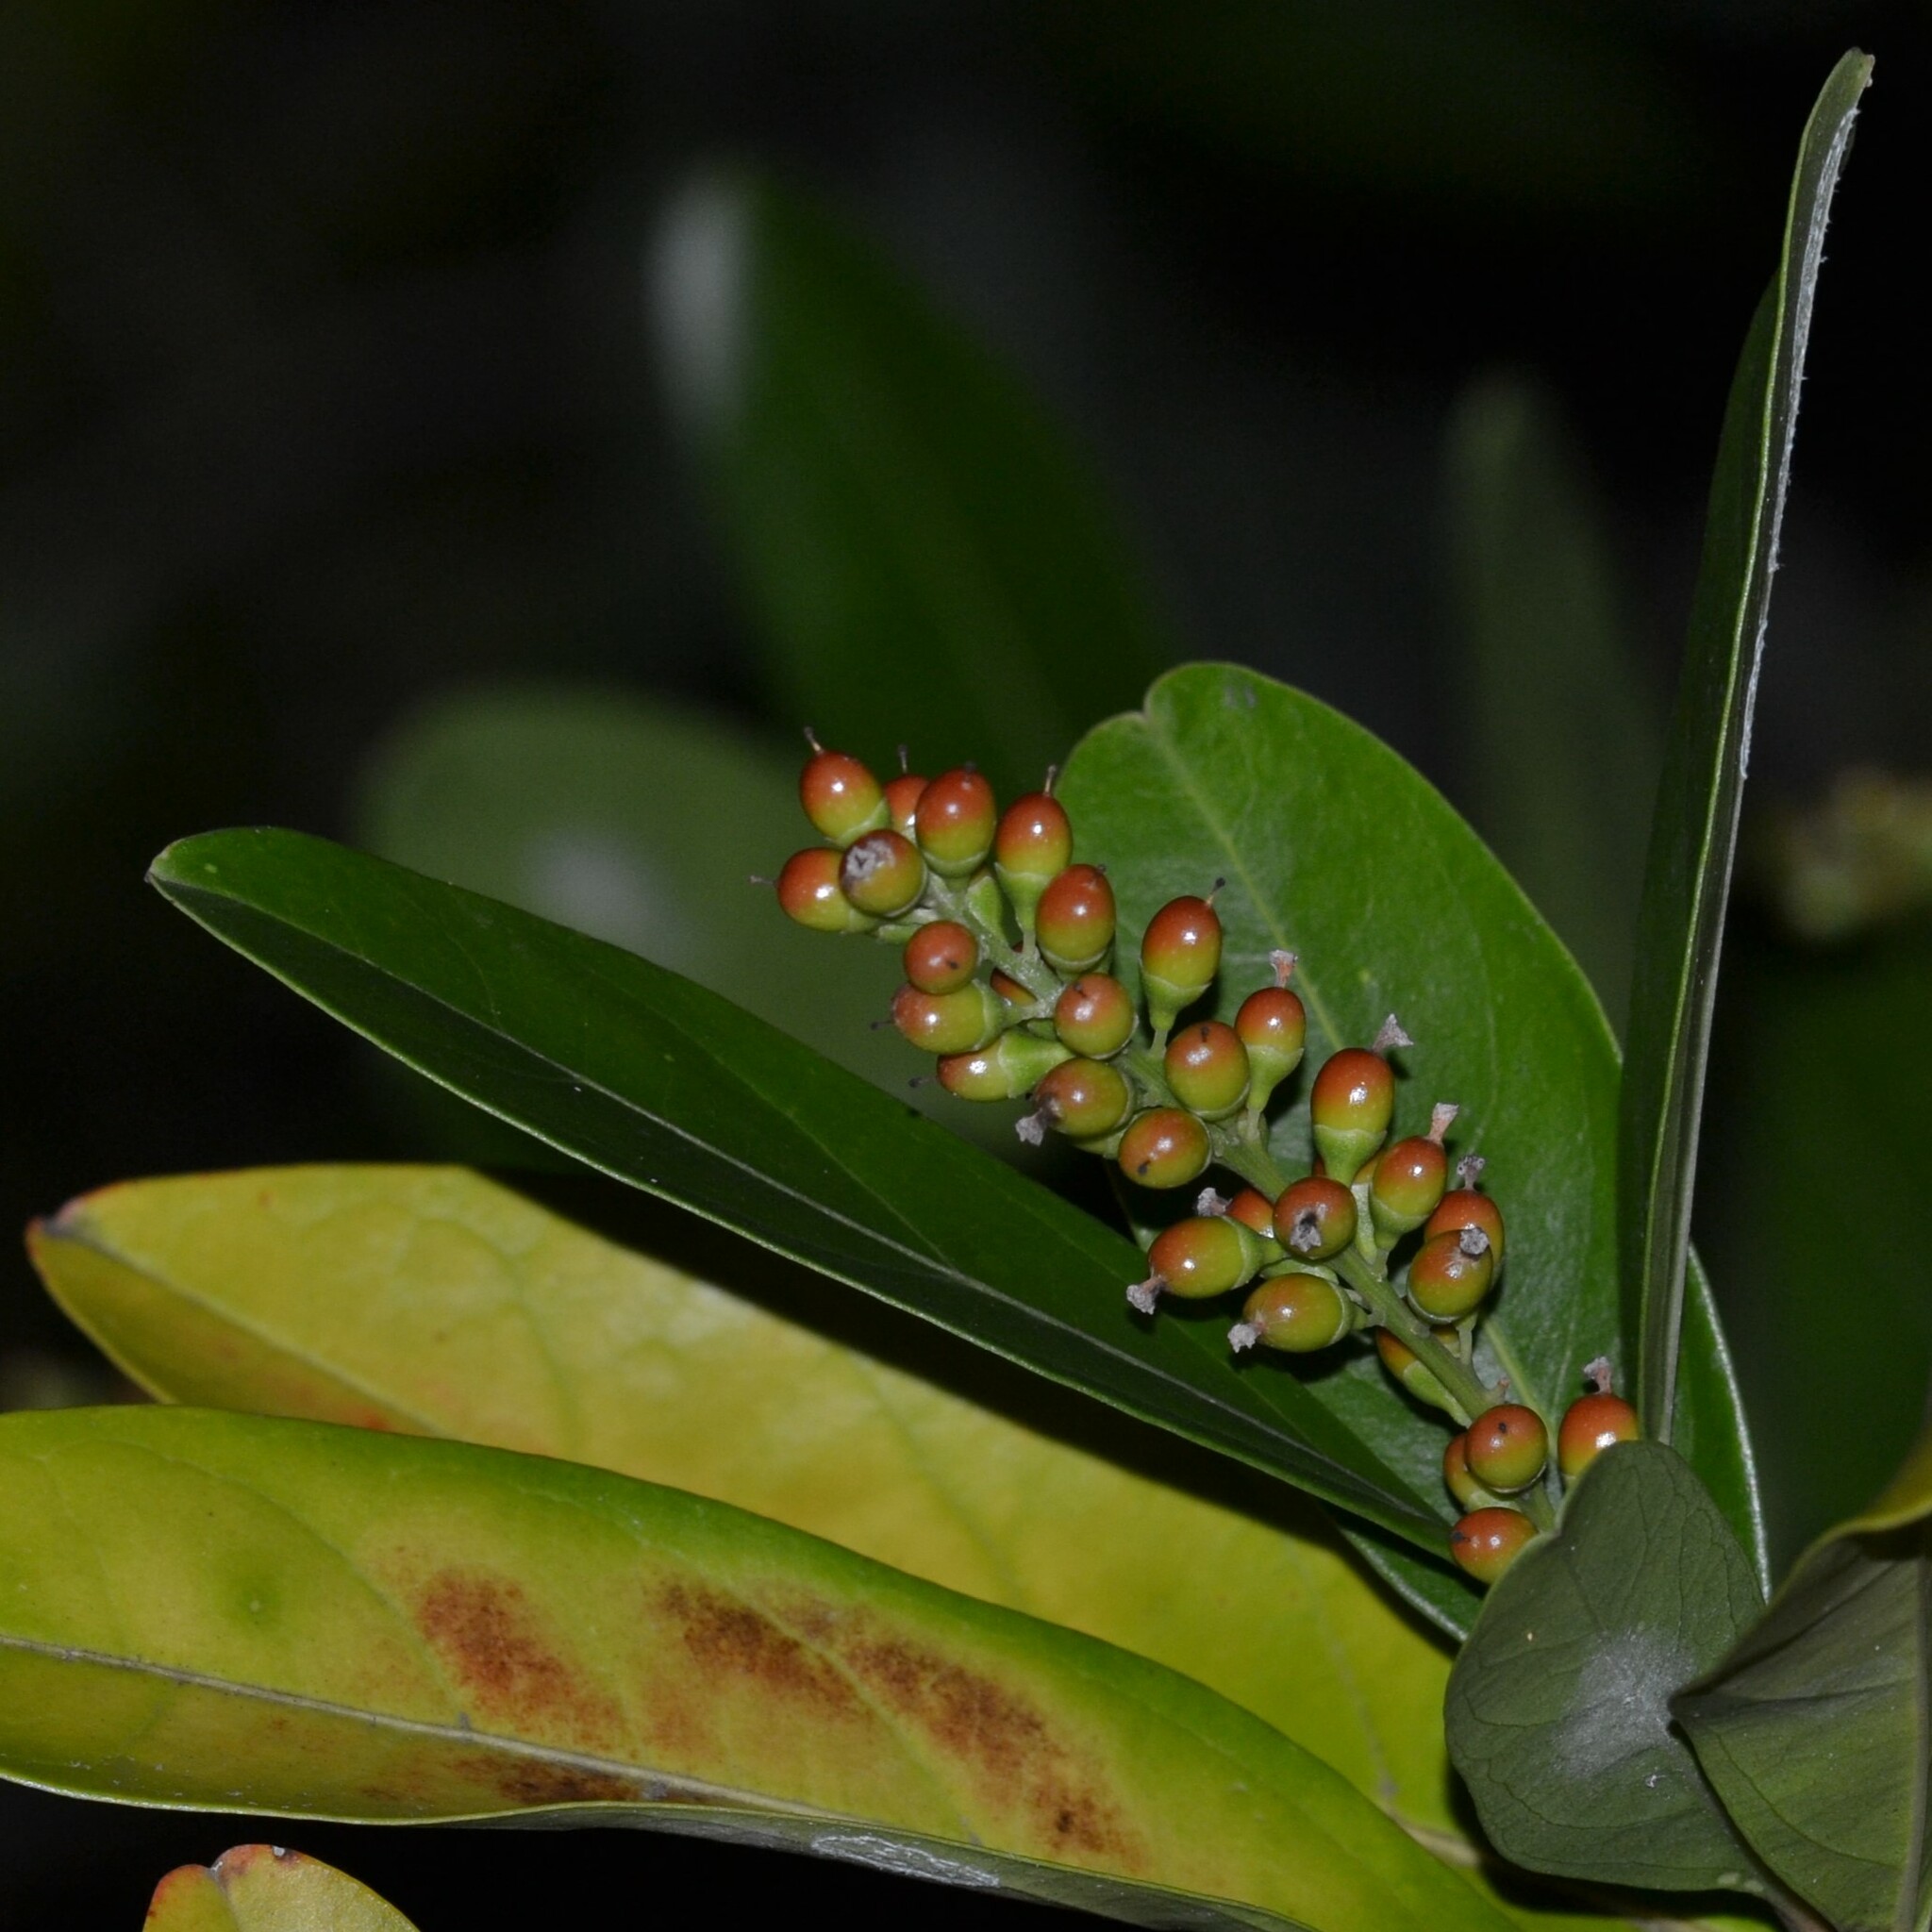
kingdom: Plantae
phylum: Tracheophyta
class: Magnoliopsida
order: Lamiales
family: Verbenaceae
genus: Citharexylum
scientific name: Citharexylum caudatum
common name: Fiddlewood
